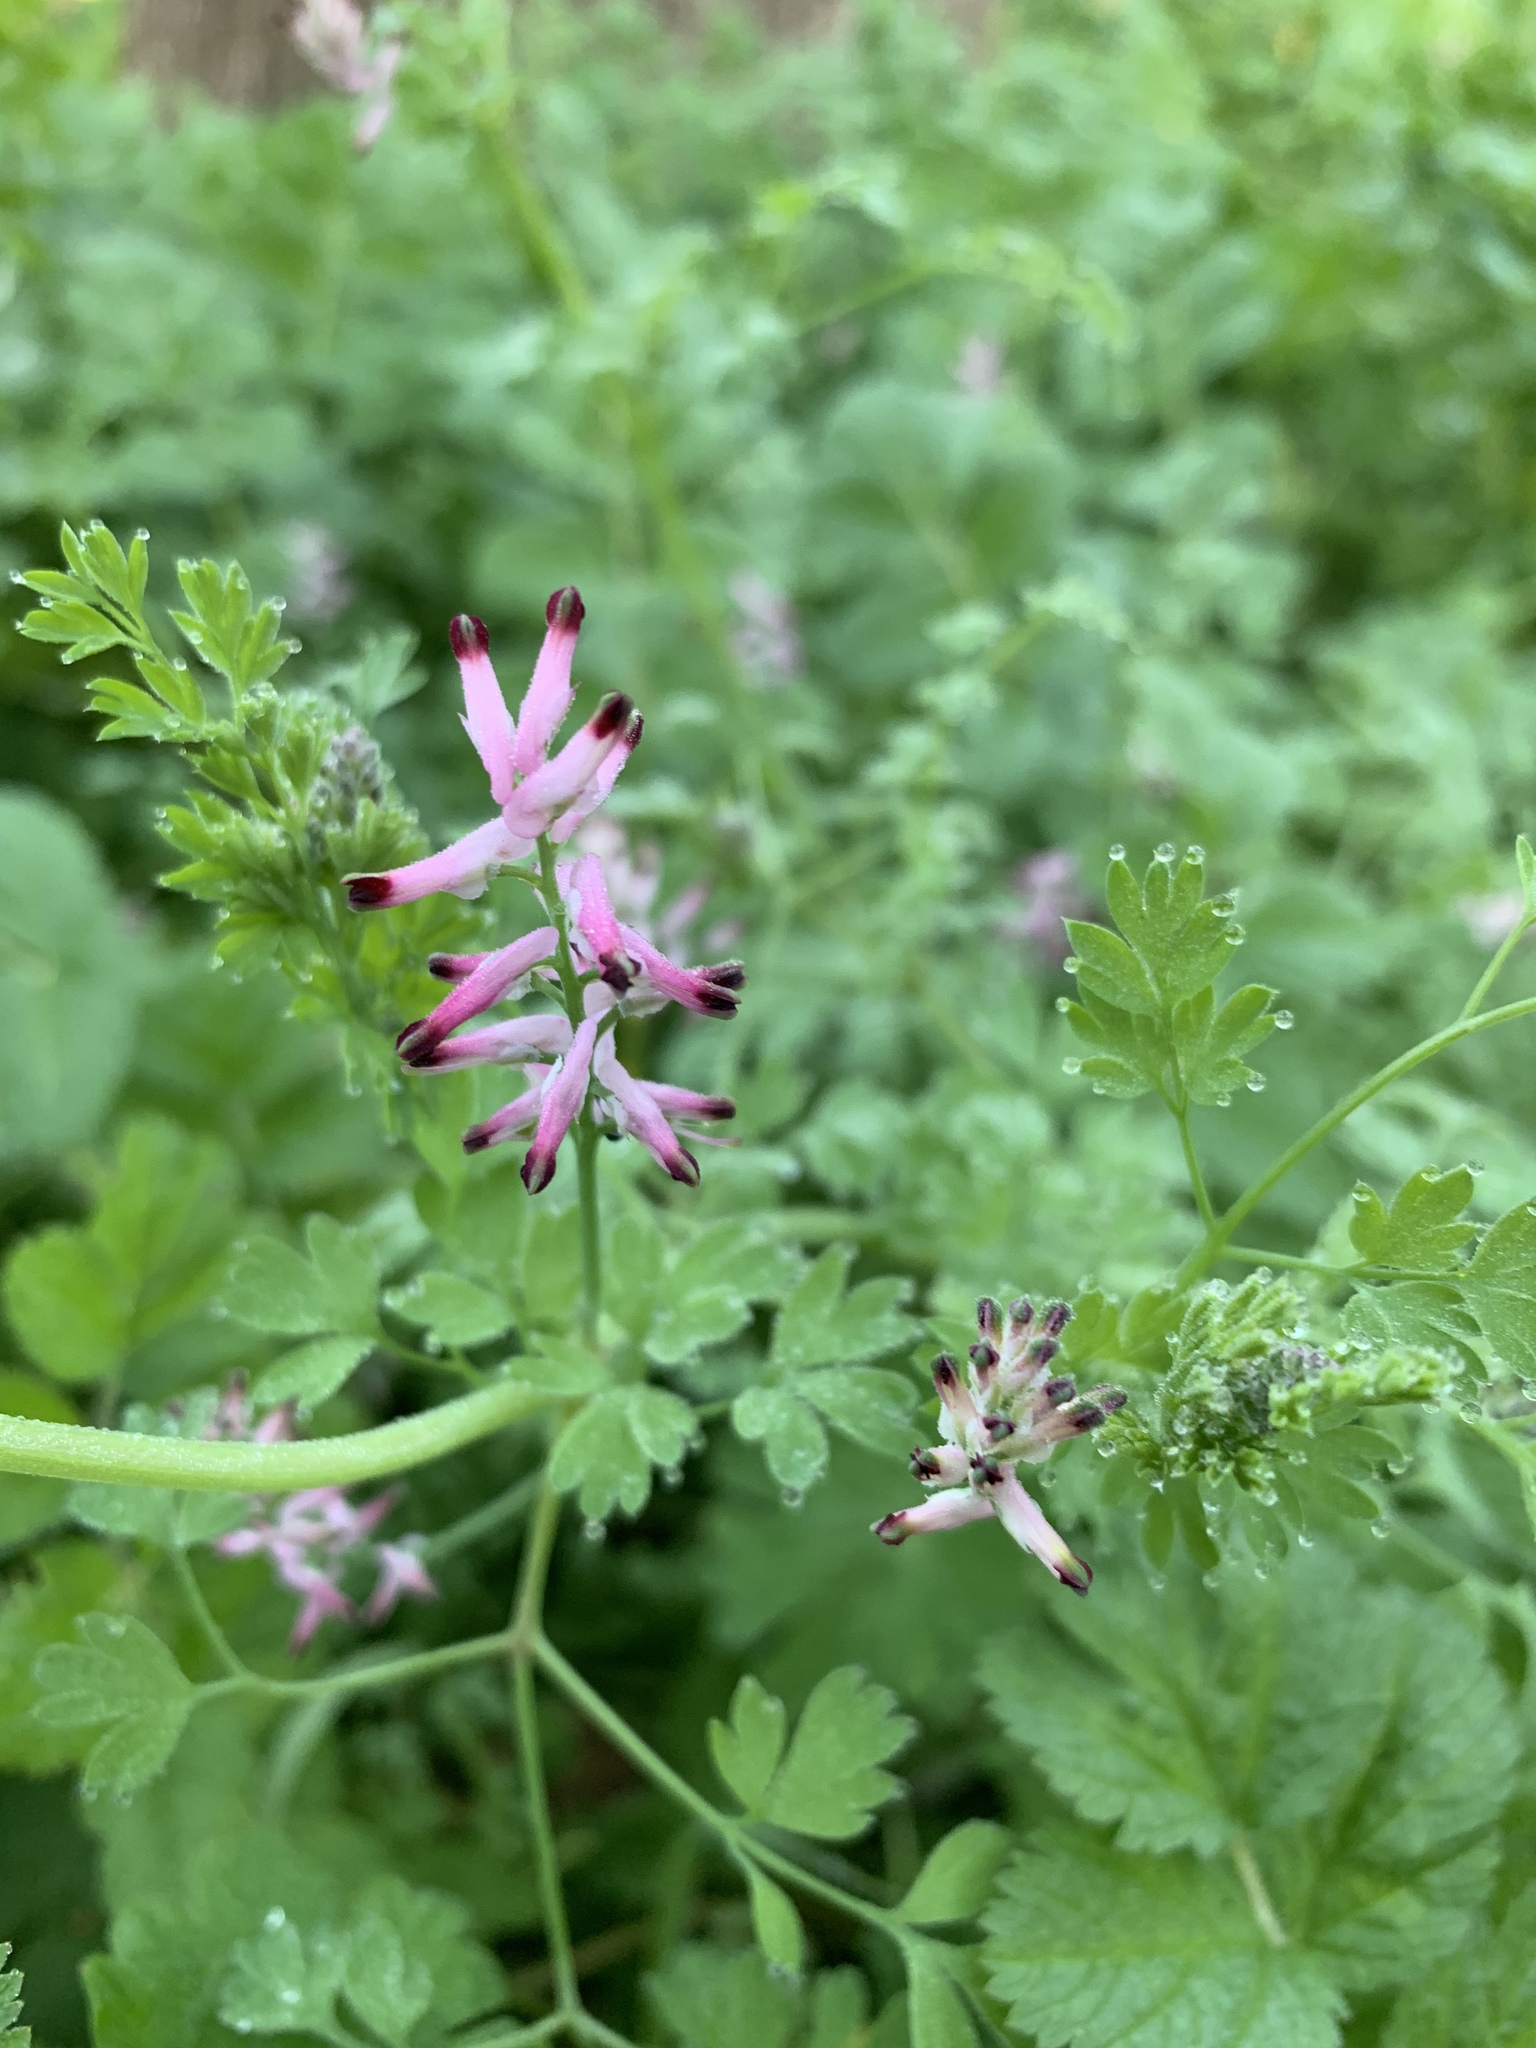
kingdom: Plantae
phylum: Tracheophyta
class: Magnoliopsida
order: Ranunculales
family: Papaveraceae
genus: Fumaria
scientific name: Fumaria muralis
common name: Common ramping-fumitory
